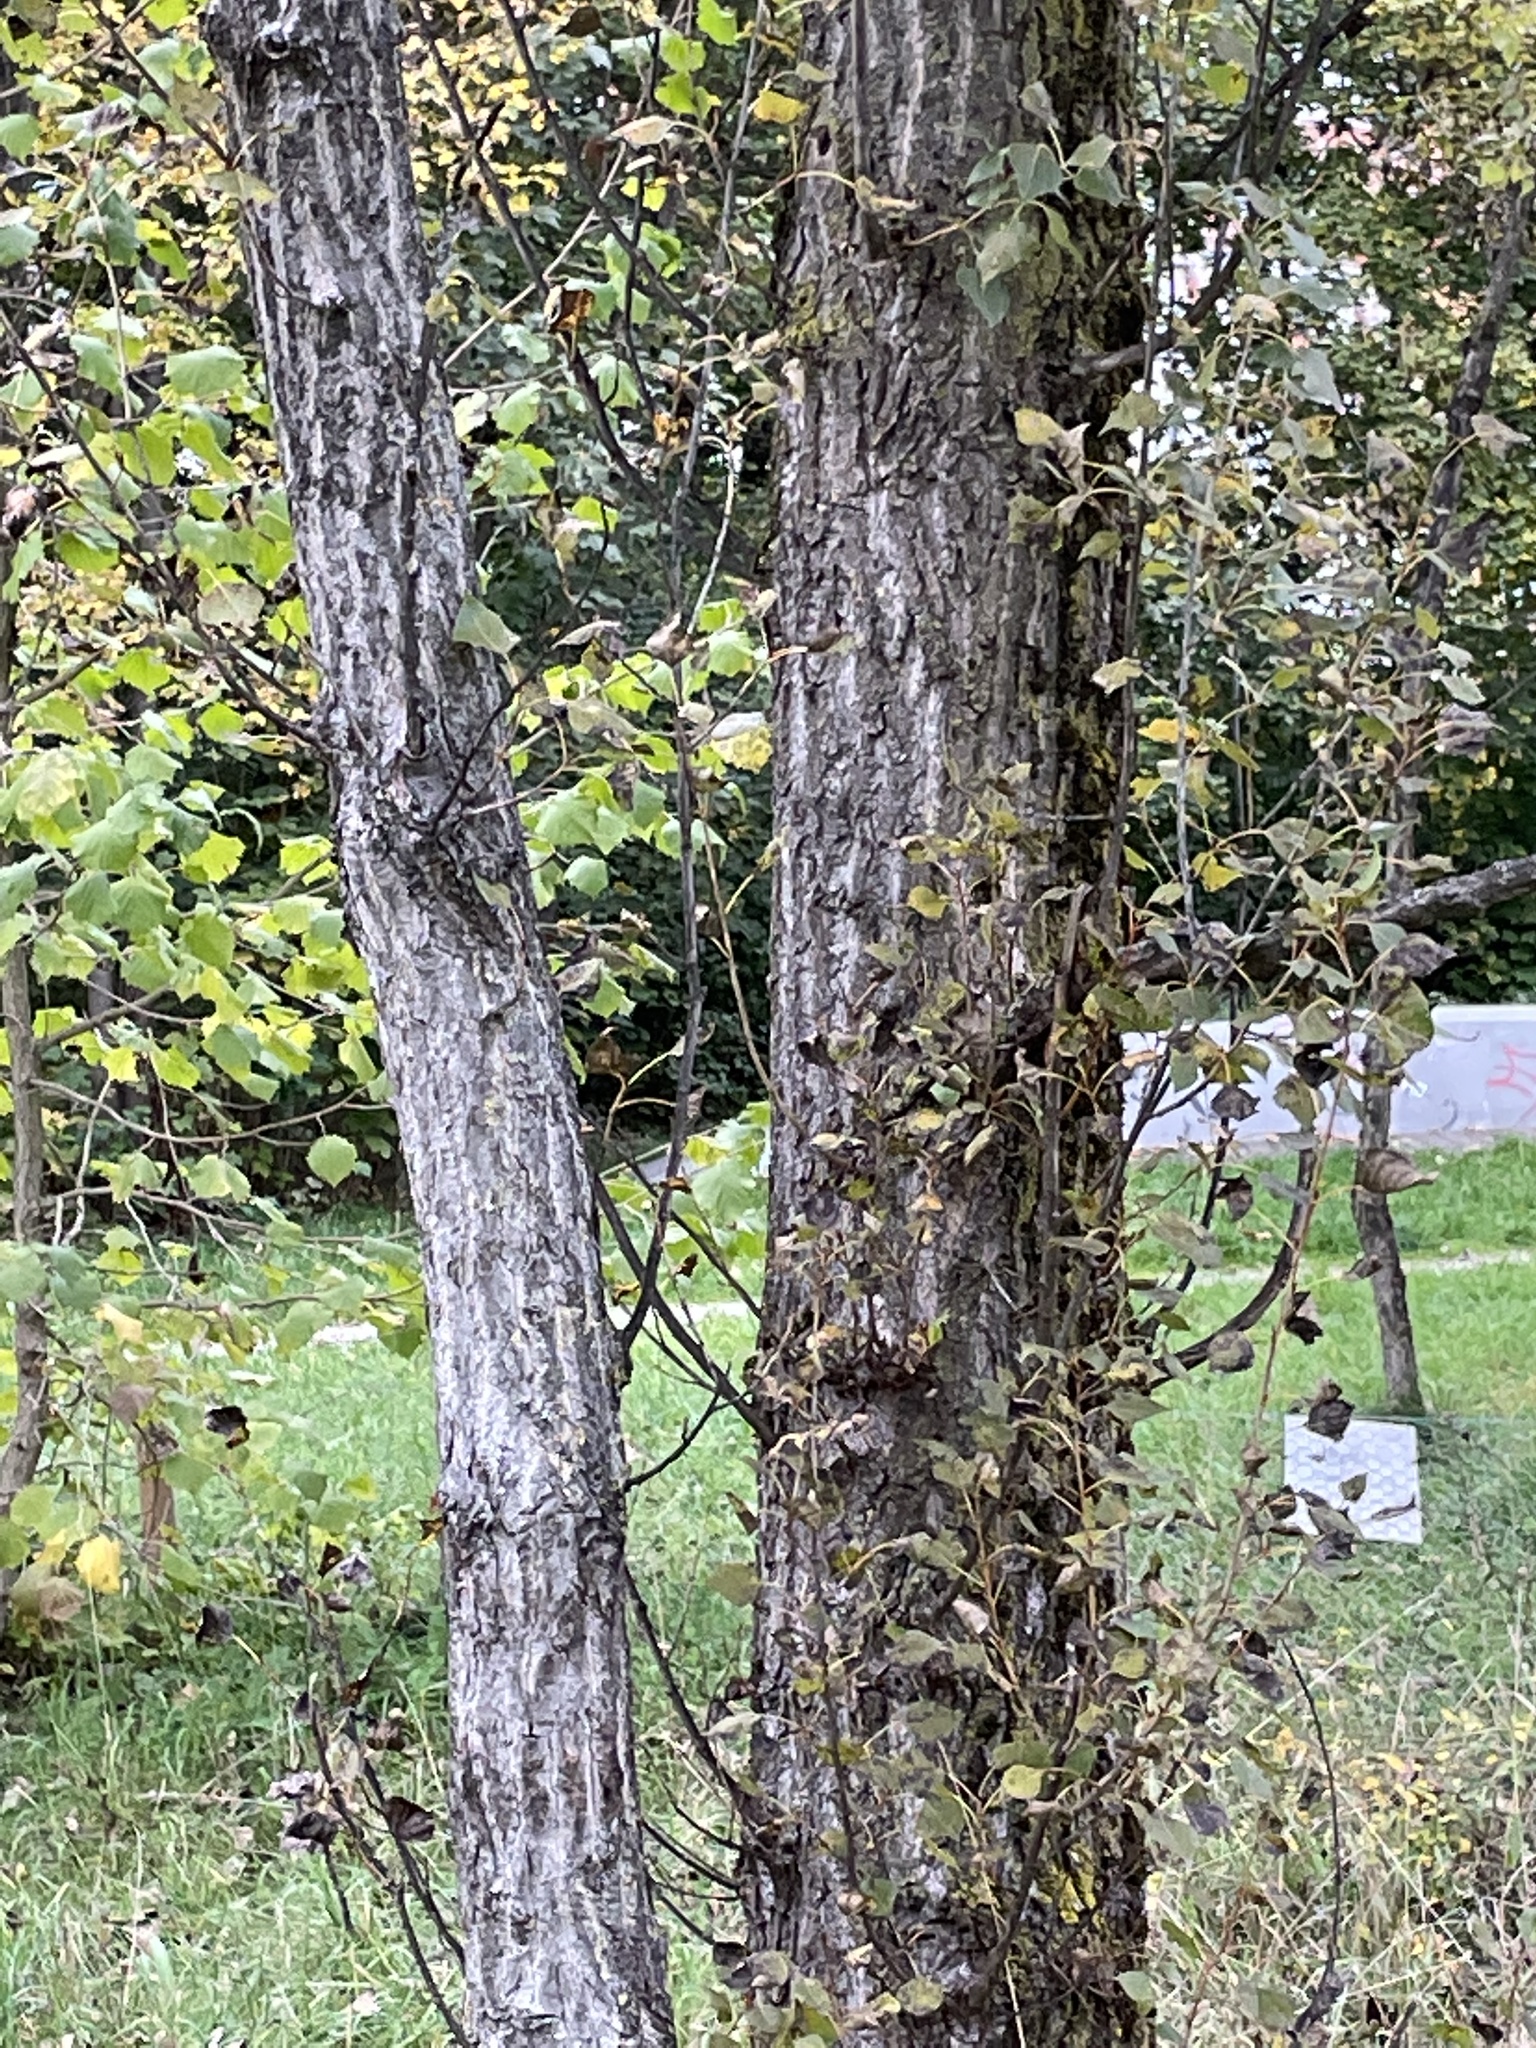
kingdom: Plantae
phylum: Tracheophyta
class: Magnoliopsida
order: Malpighiales
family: Salicaceae
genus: Populus
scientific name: Populus nigra
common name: Black poplar
